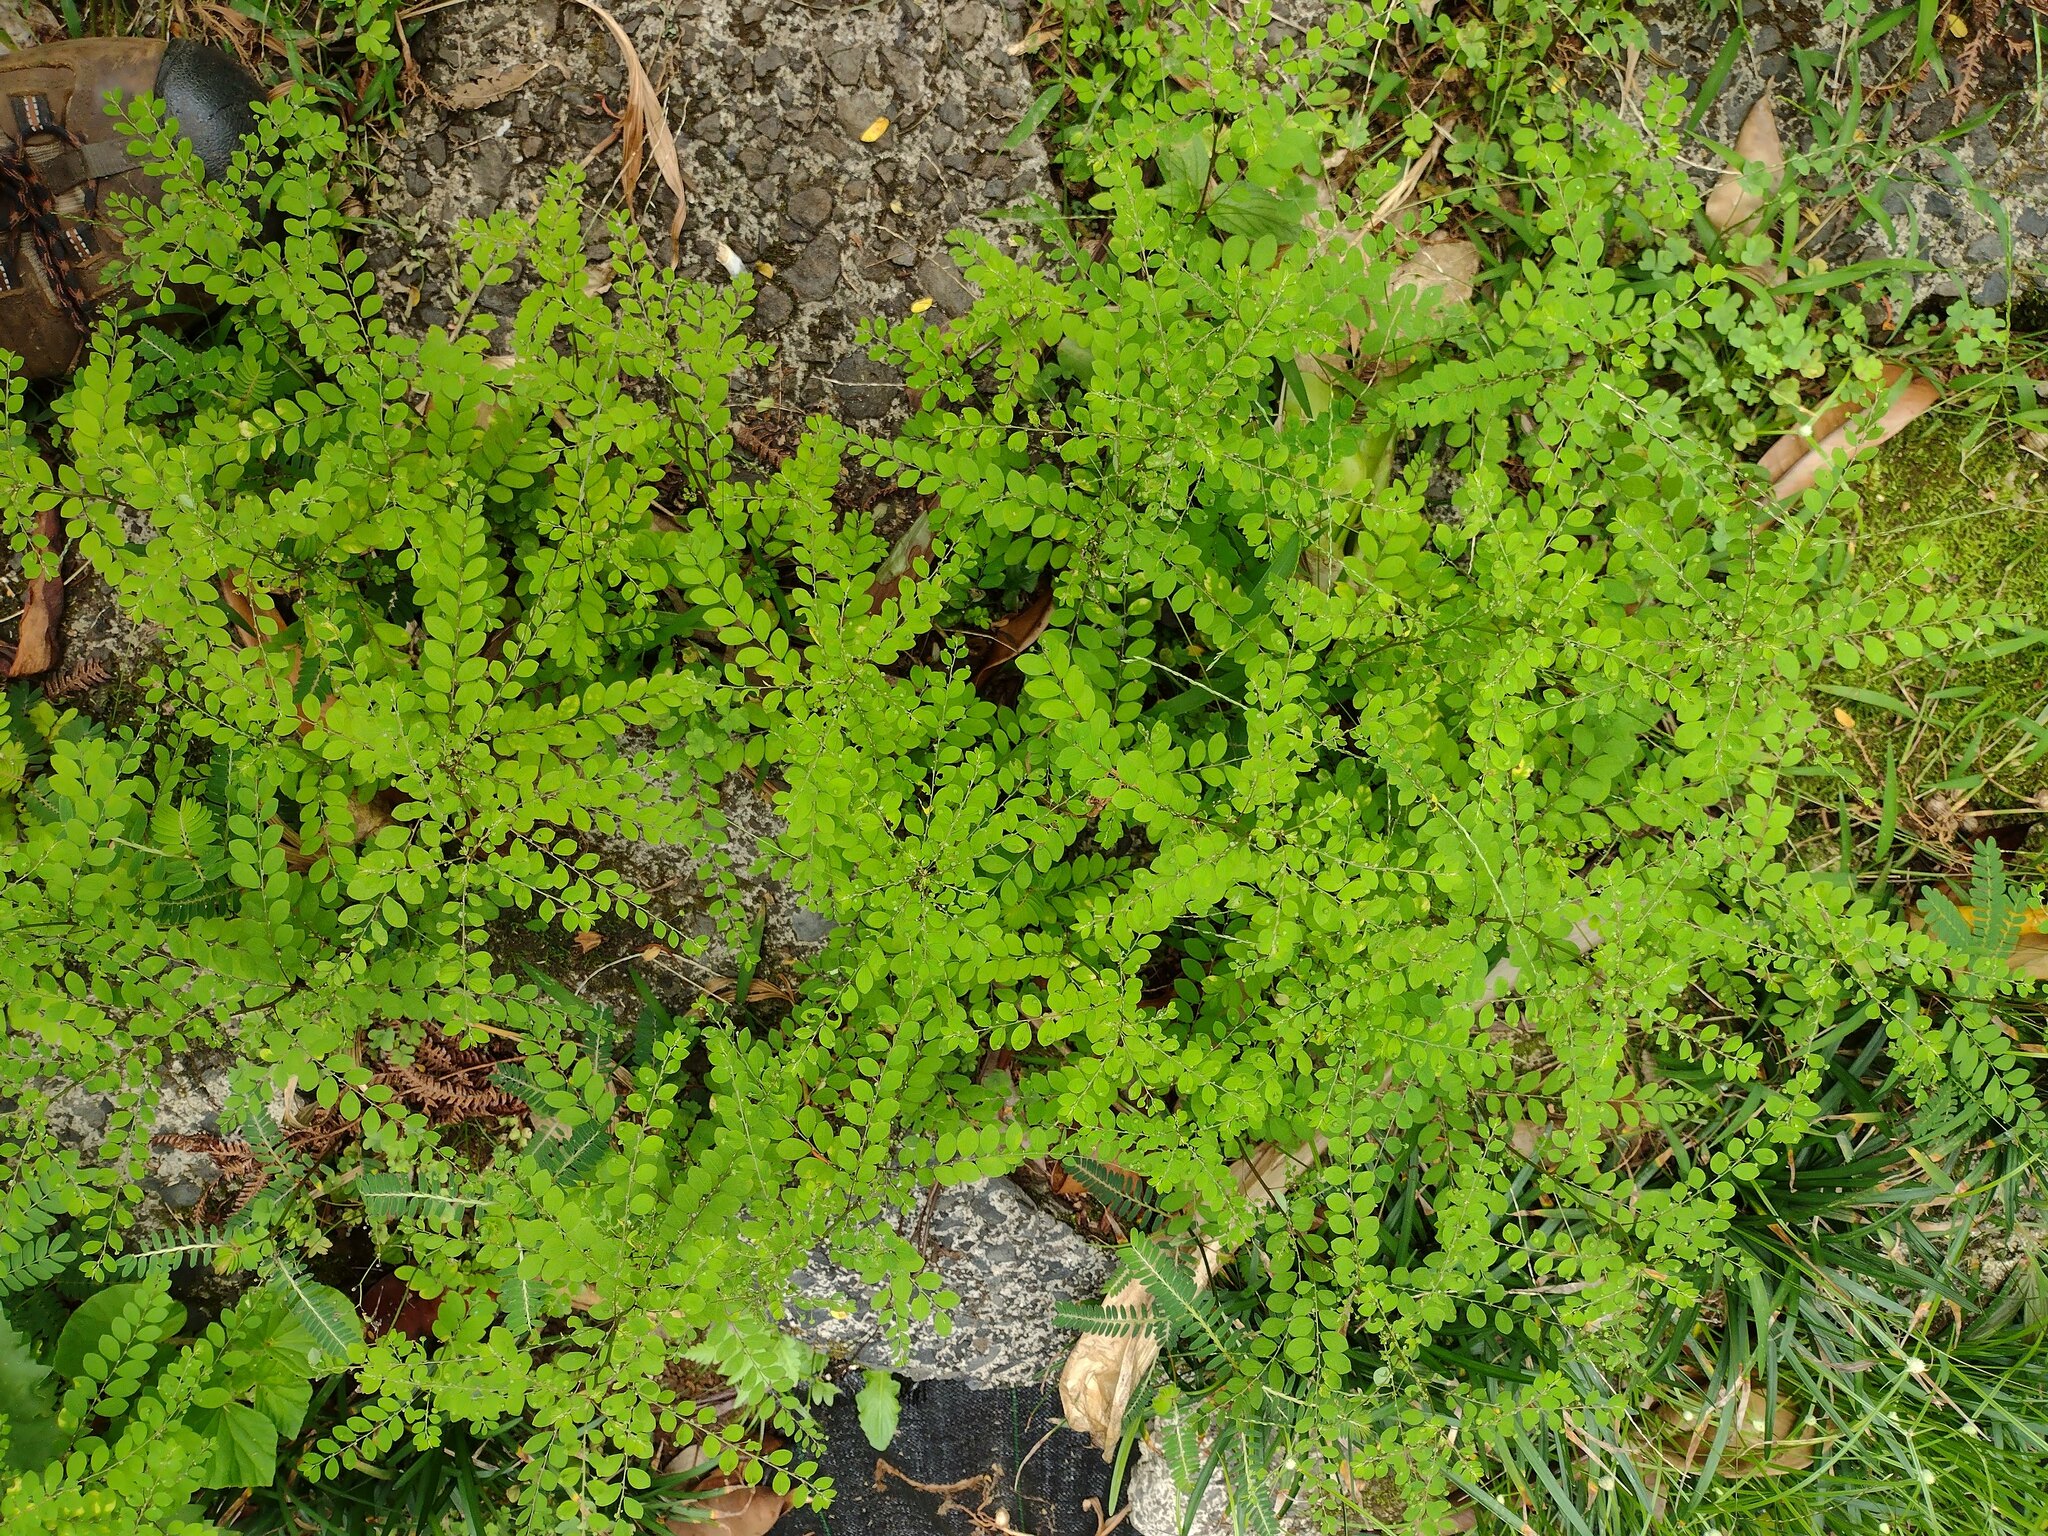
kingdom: Plantae
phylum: Tracheophyta
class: Magnoliopsida
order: Malpighiales
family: Phyllanthaceae
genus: Phyllanthus
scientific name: Phyllanthus tenellus
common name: Mascarene island leaf-flower
